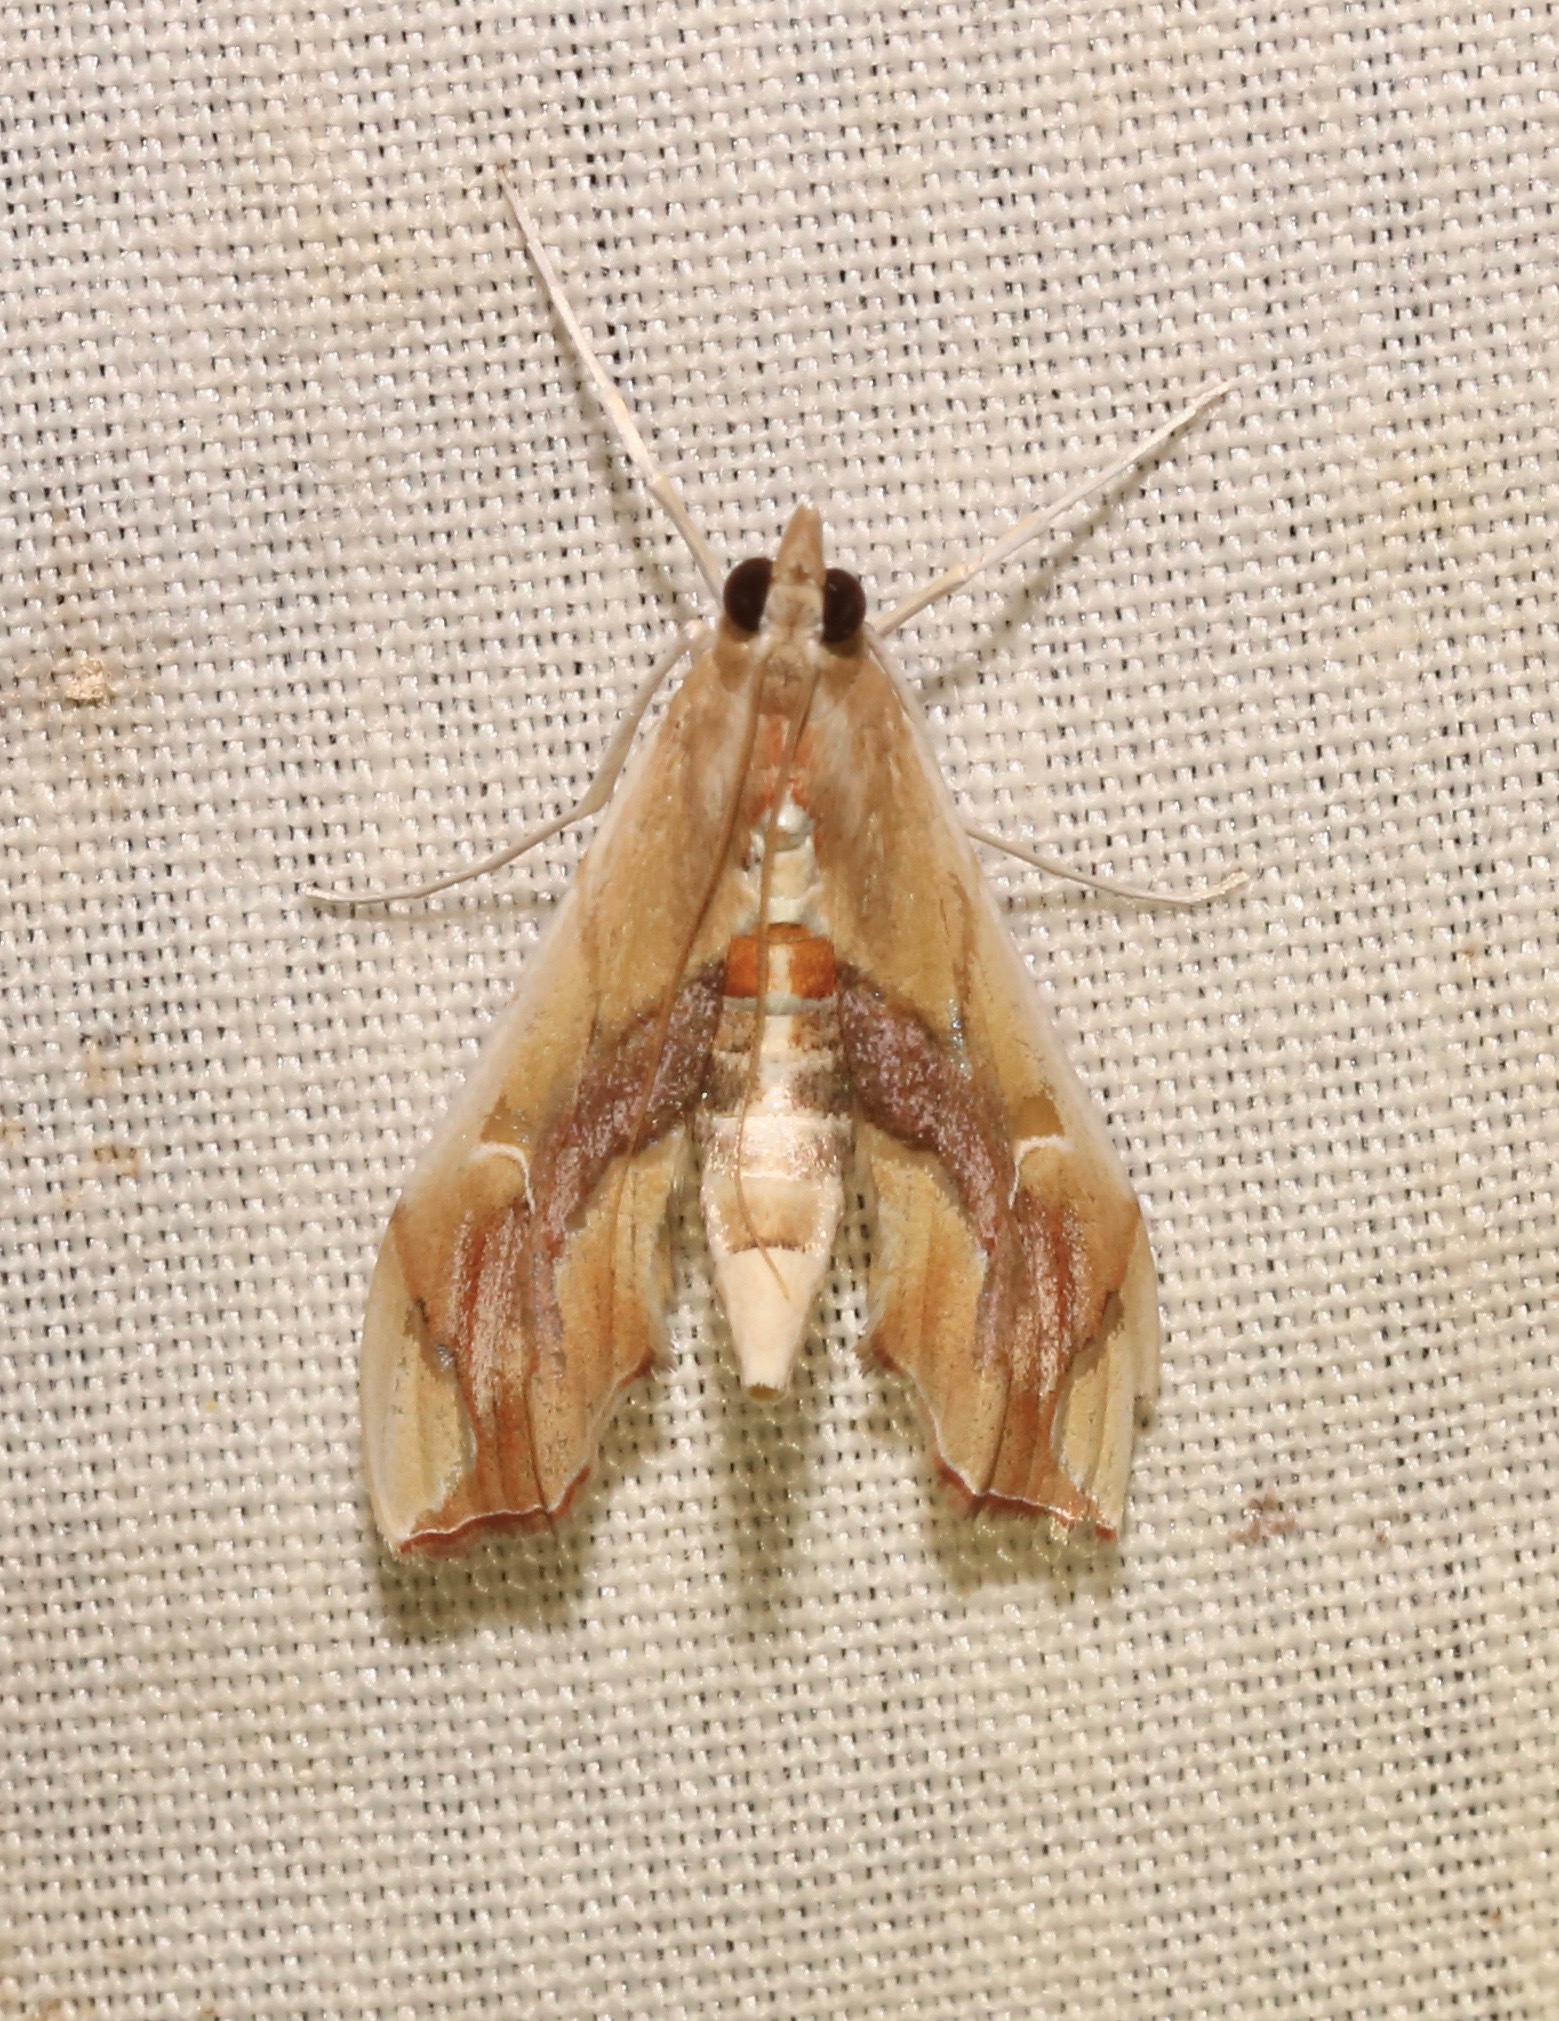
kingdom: Animalia
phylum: Arthropoda
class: Insecta
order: Lepidoptera
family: Crambidae
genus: Agathodes
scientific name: Agathodes monstralis
